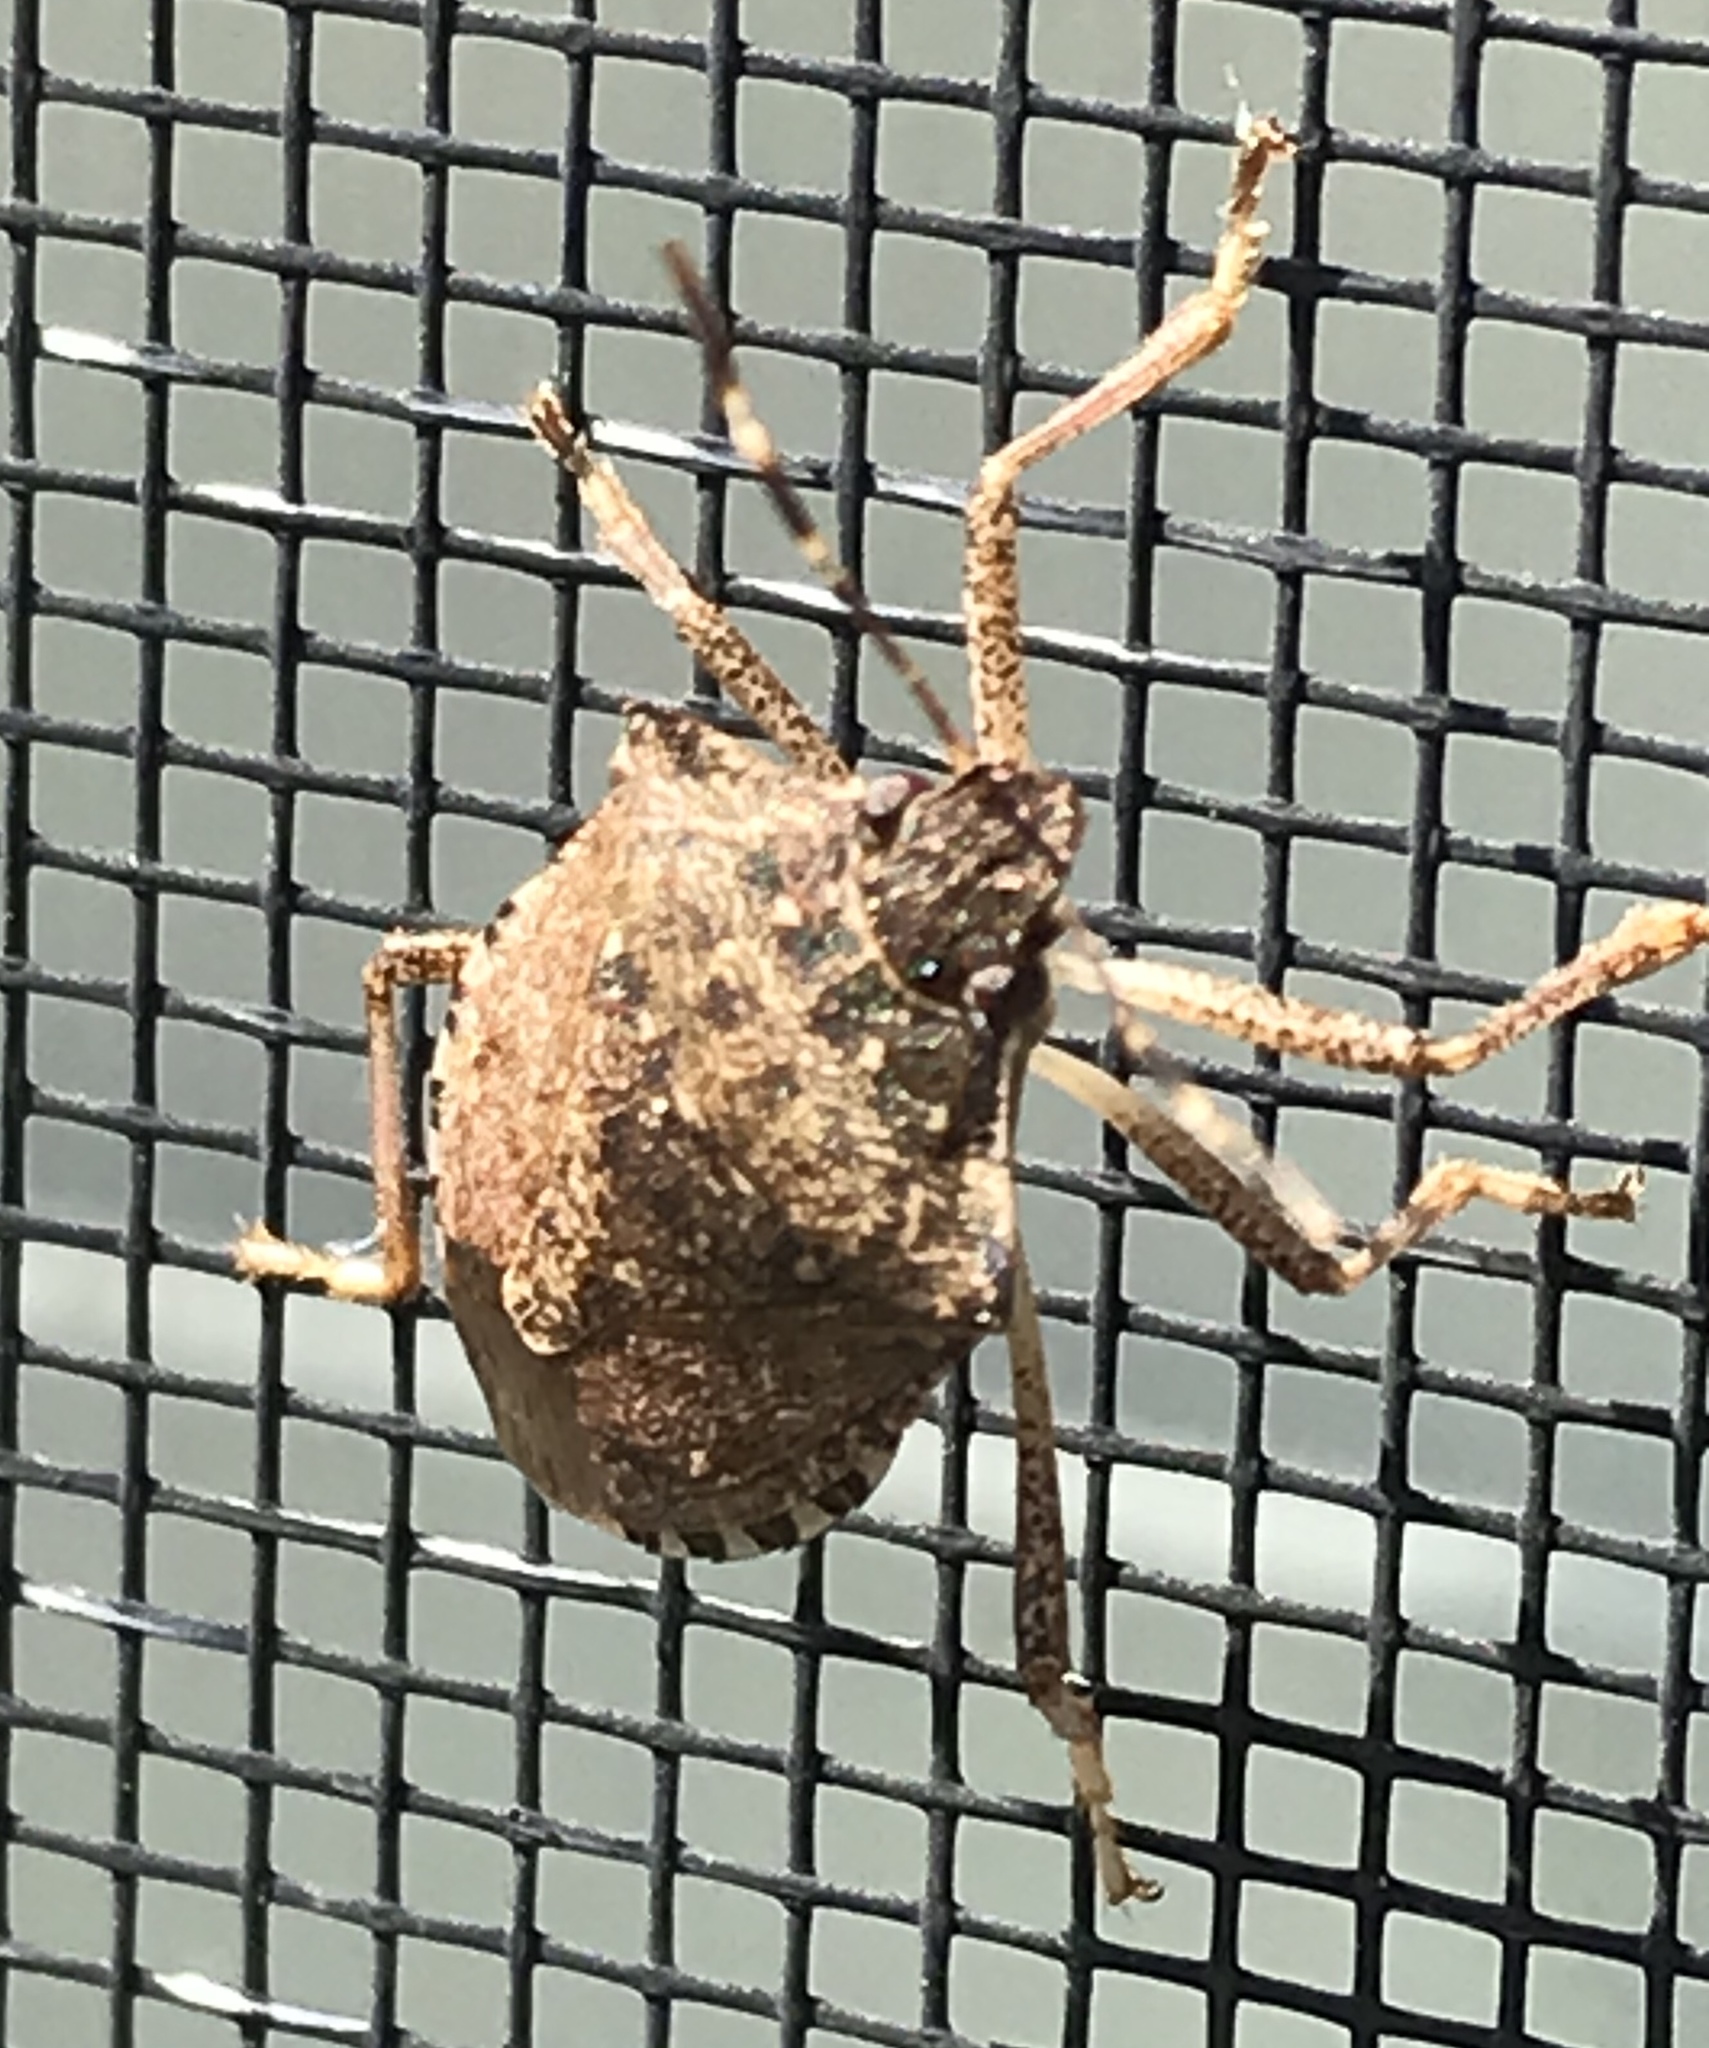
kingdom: Animalia
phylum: Arthropoda
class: Insecta
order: Hemiptera
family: Pentatomidae
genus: Halyomorpha
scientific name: Halyomorpha halys
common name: Brown marmorated stink bug
